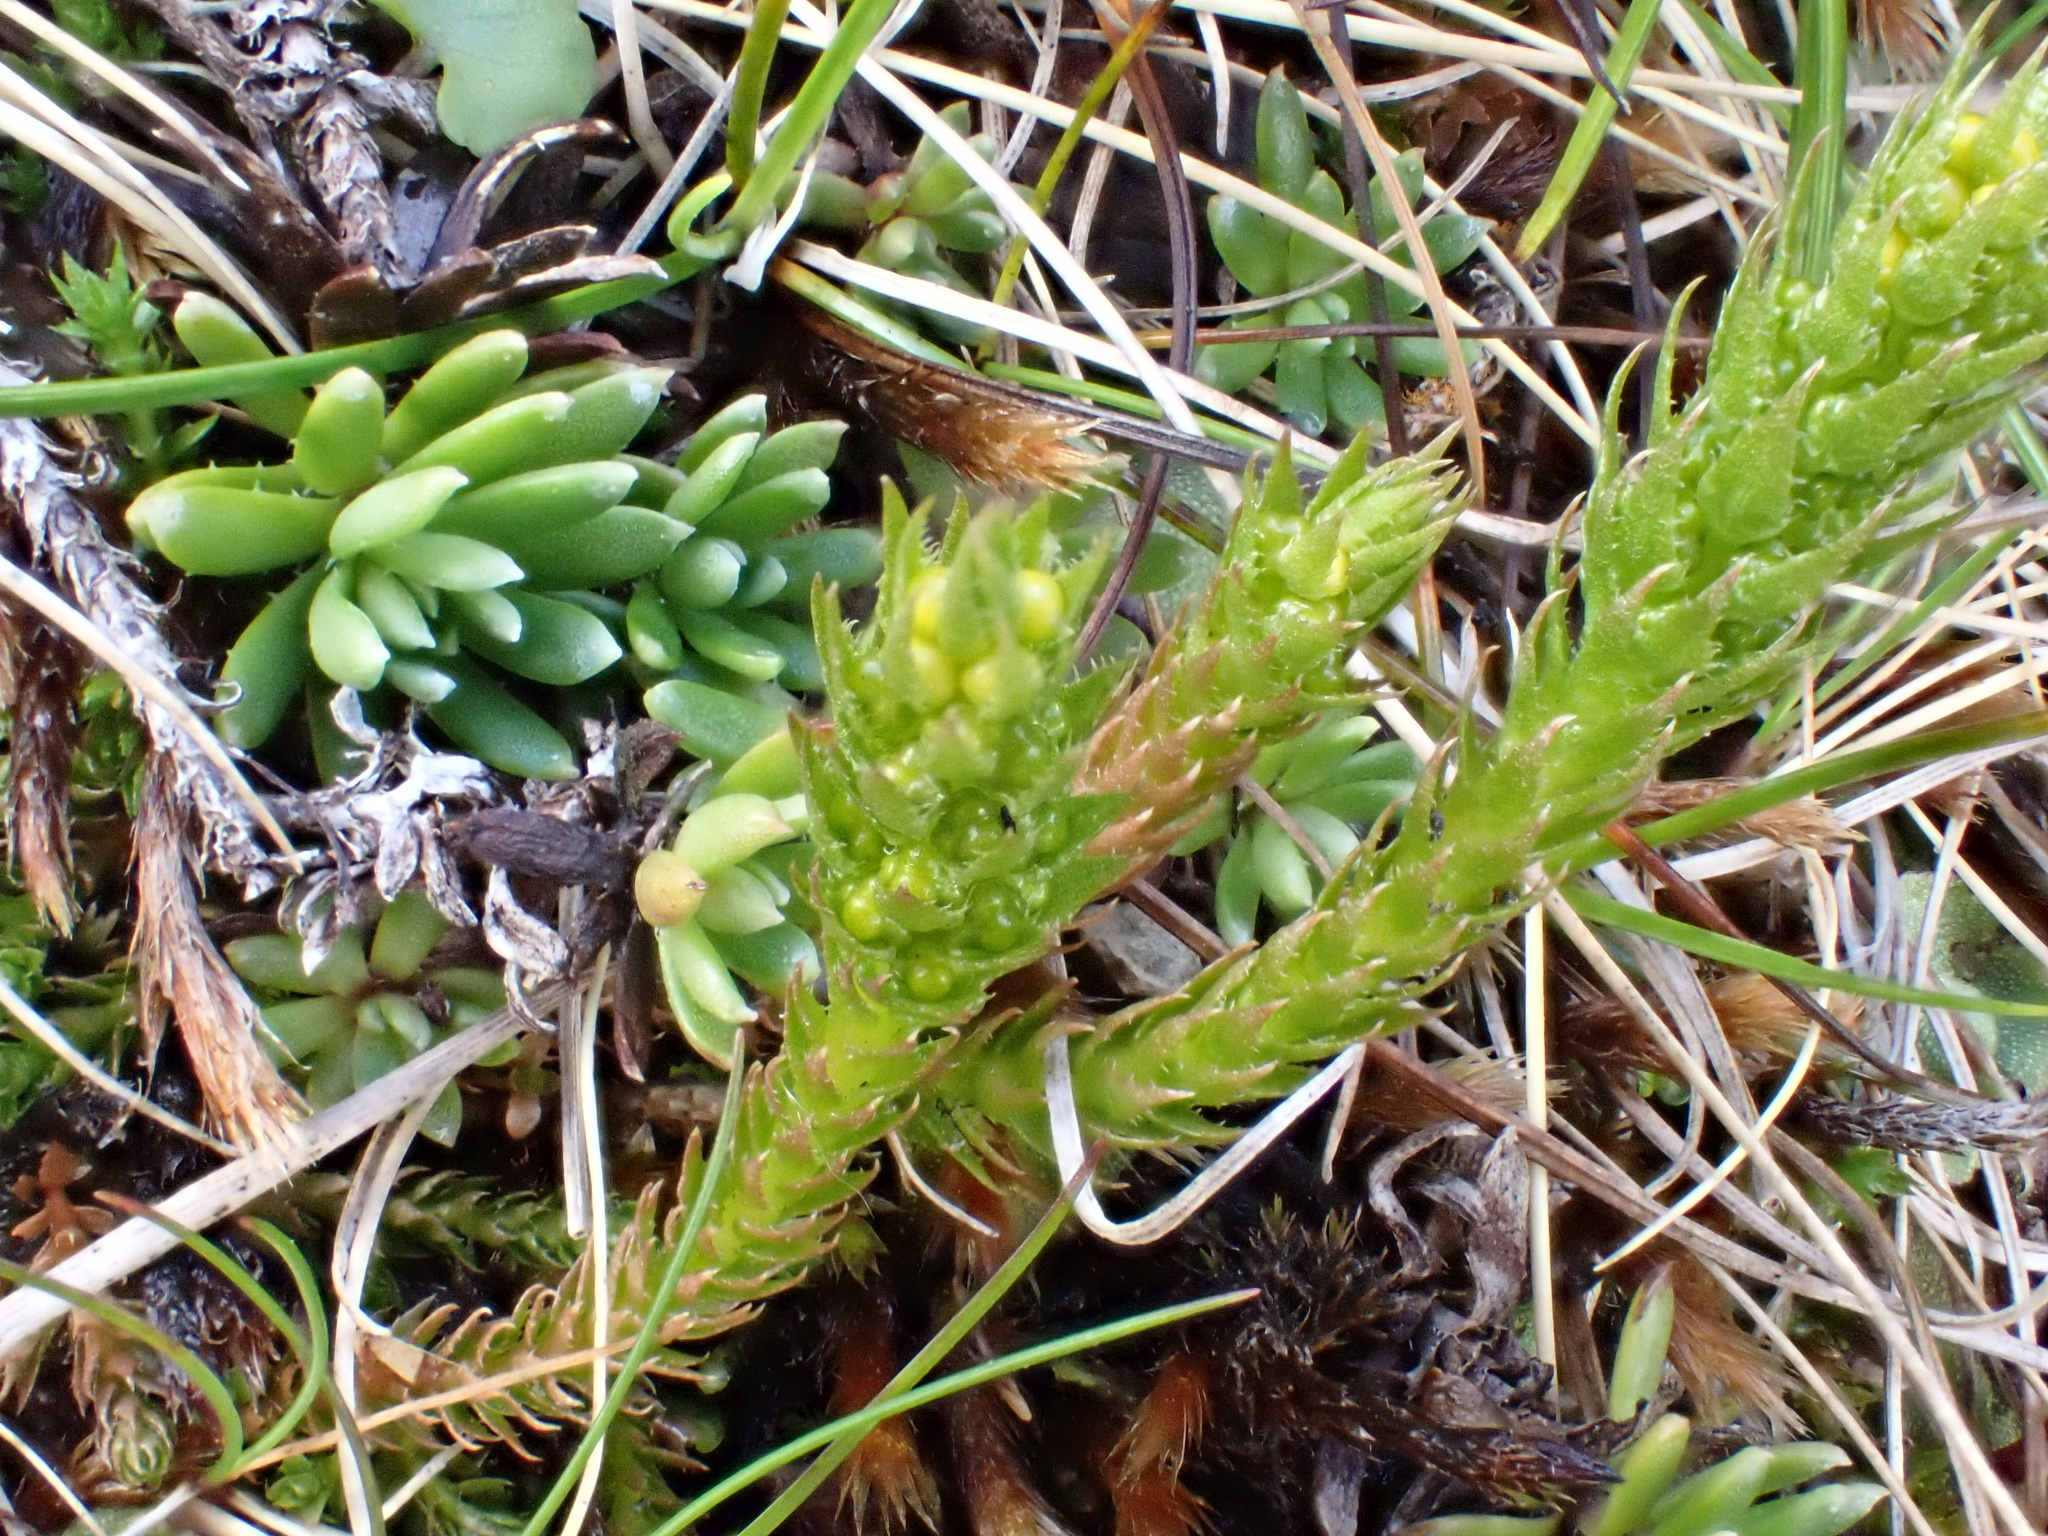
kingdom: Plantae
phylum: Tracheophyta
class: Lycopodiopsida
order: Selaginellales
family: Selaginellaceae
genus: Selaginella
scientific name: Selaginella selaginoides
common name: Prickly mountain-moss
